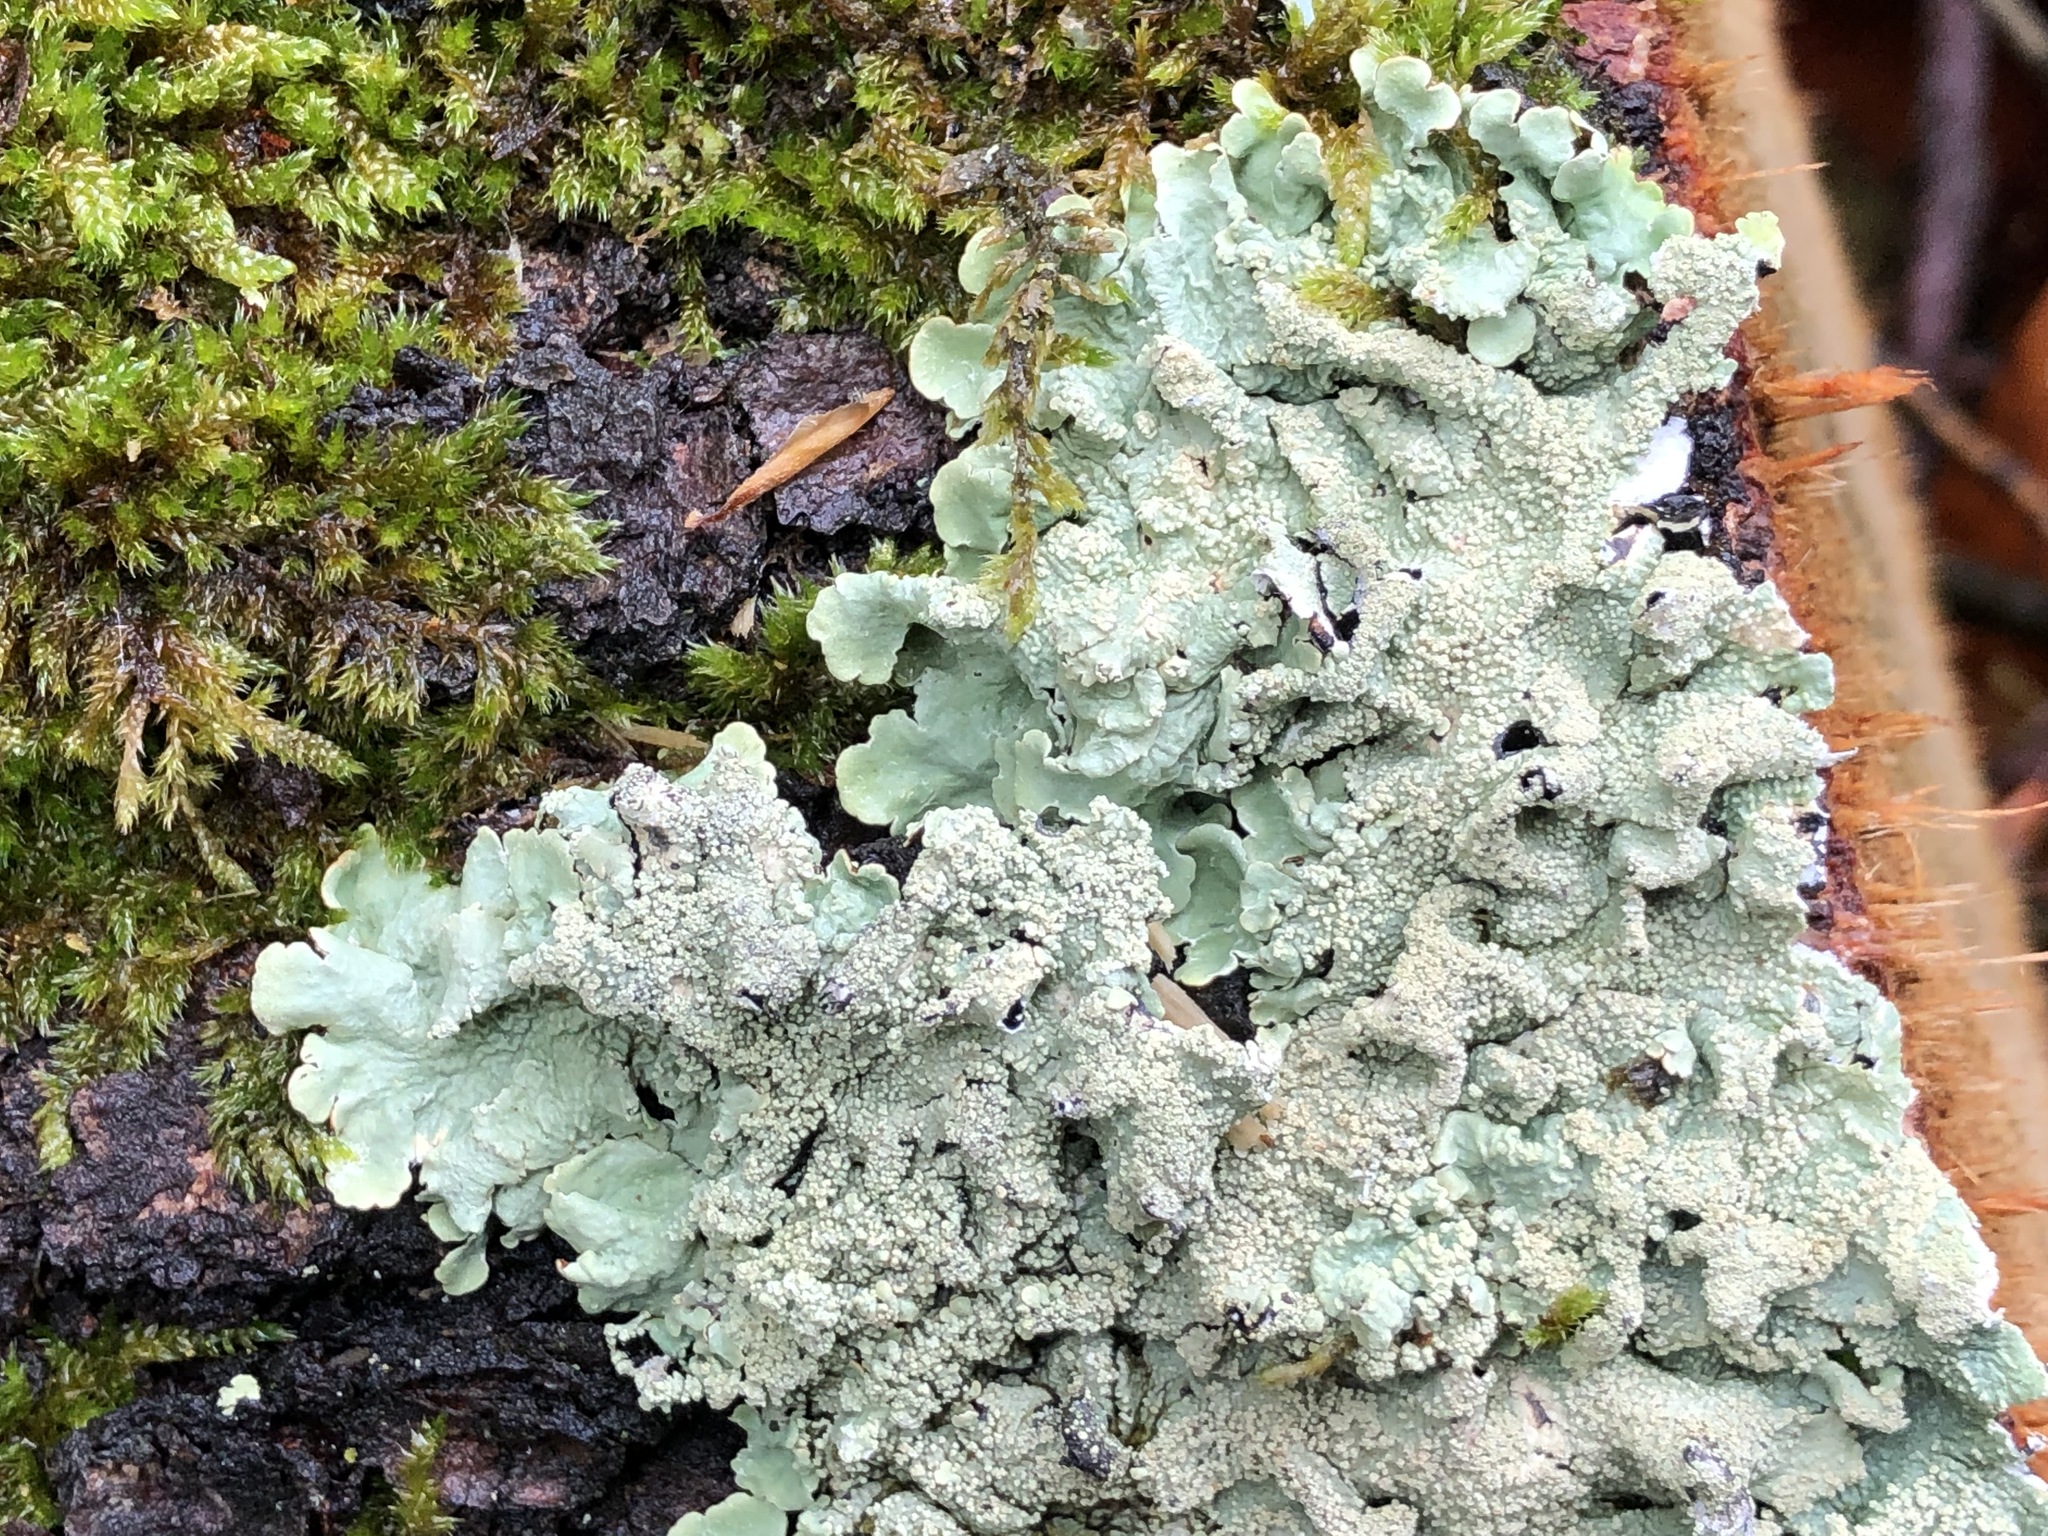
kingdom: Fungi
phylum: Ascomycota
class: Lecanoromycetes
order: Lecanorales
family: Parmeliaceae
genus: Flavoparmelia
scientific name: Flavoparmelia caperata
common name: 40-mile per hour lichen
